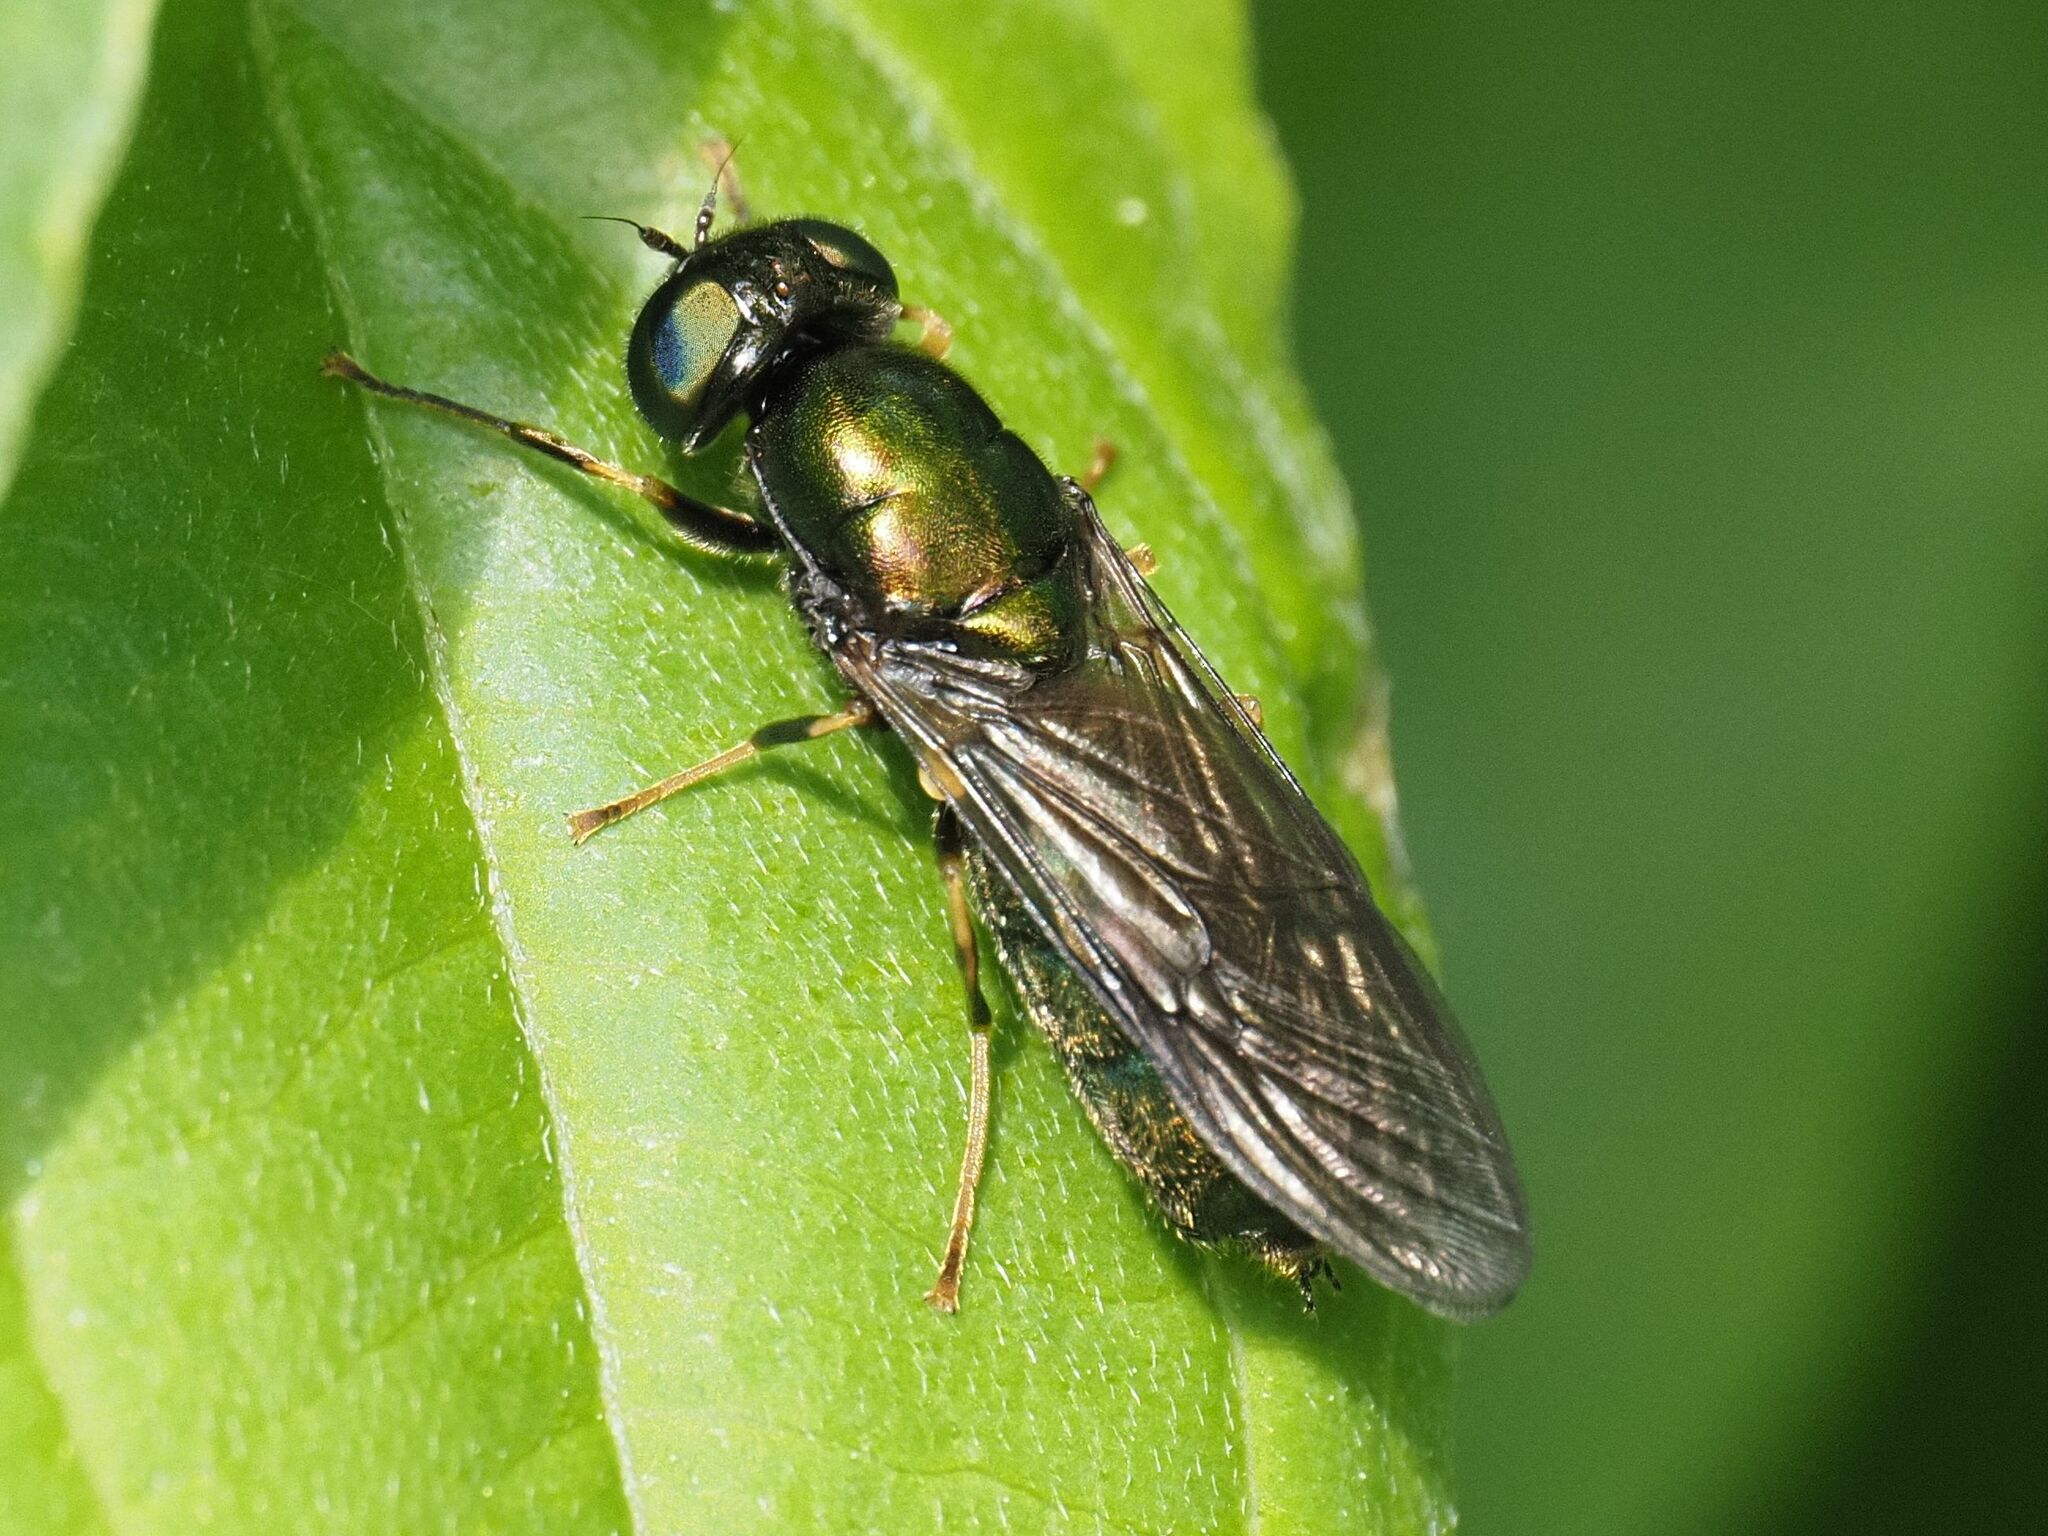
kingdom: Animalia
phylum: Arthropoda
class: Insecta
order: Diptera
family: Stratiomyidae
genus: Chloromyia
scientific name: Chloromyia speciosa
